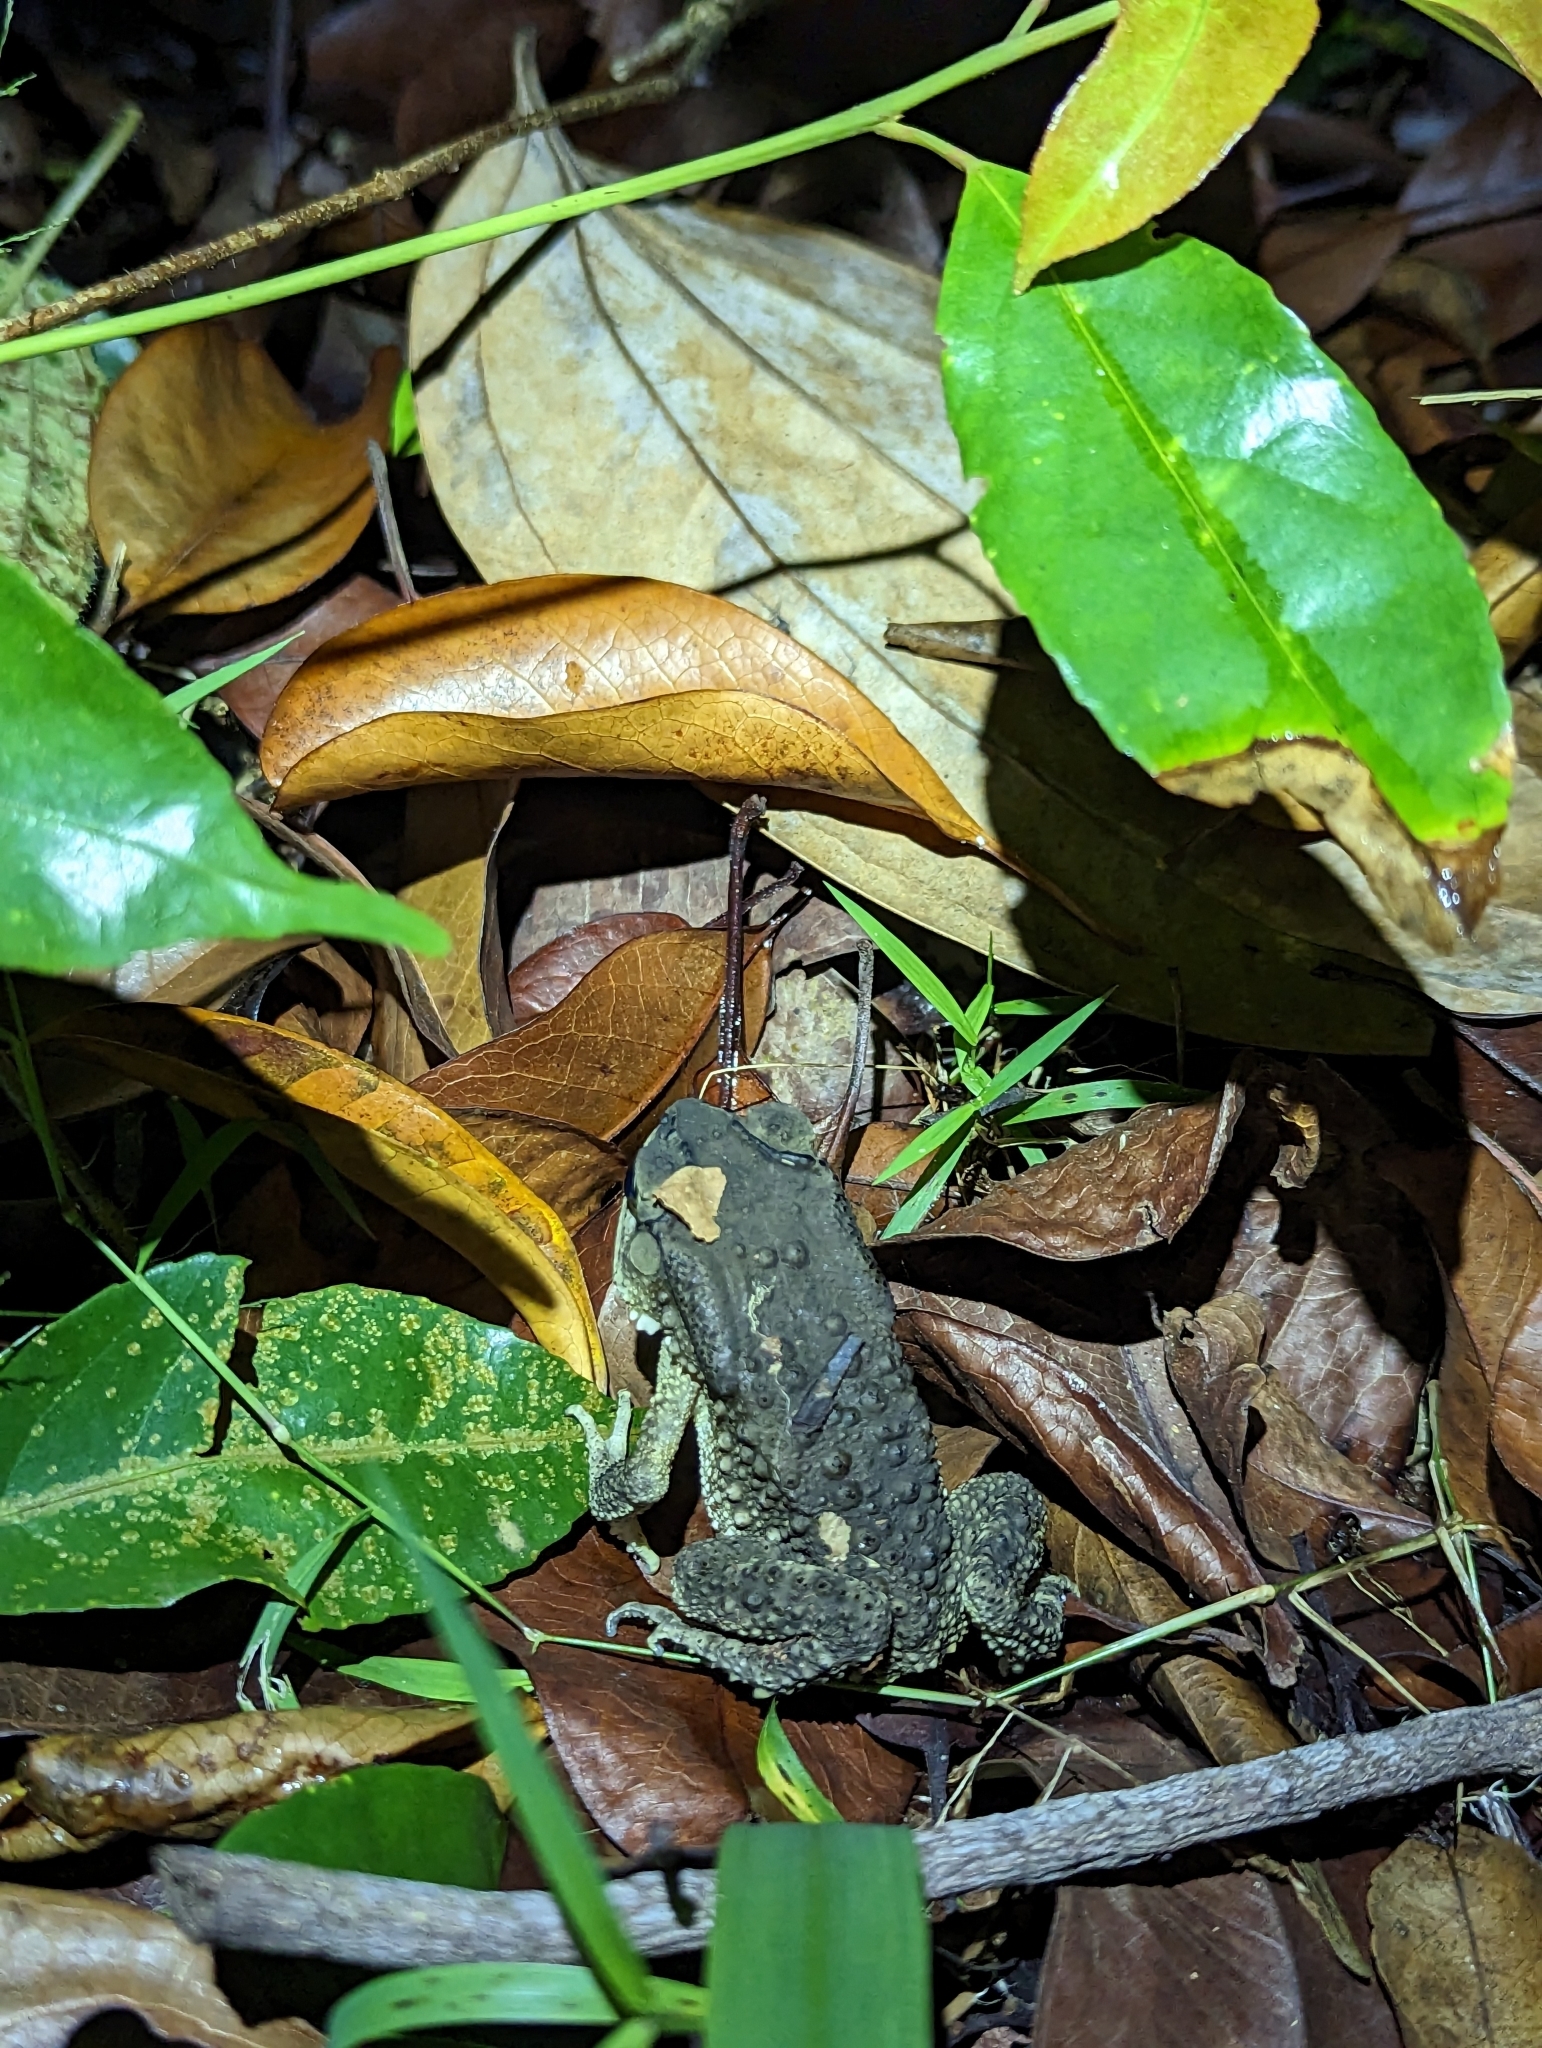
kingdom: Animalia
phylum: Chordata
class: Amphibia
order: Anura
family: Bufonidae
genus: Duttaphrynus
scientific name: Duttaphrynus melanostictus
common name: Common sunda toad
